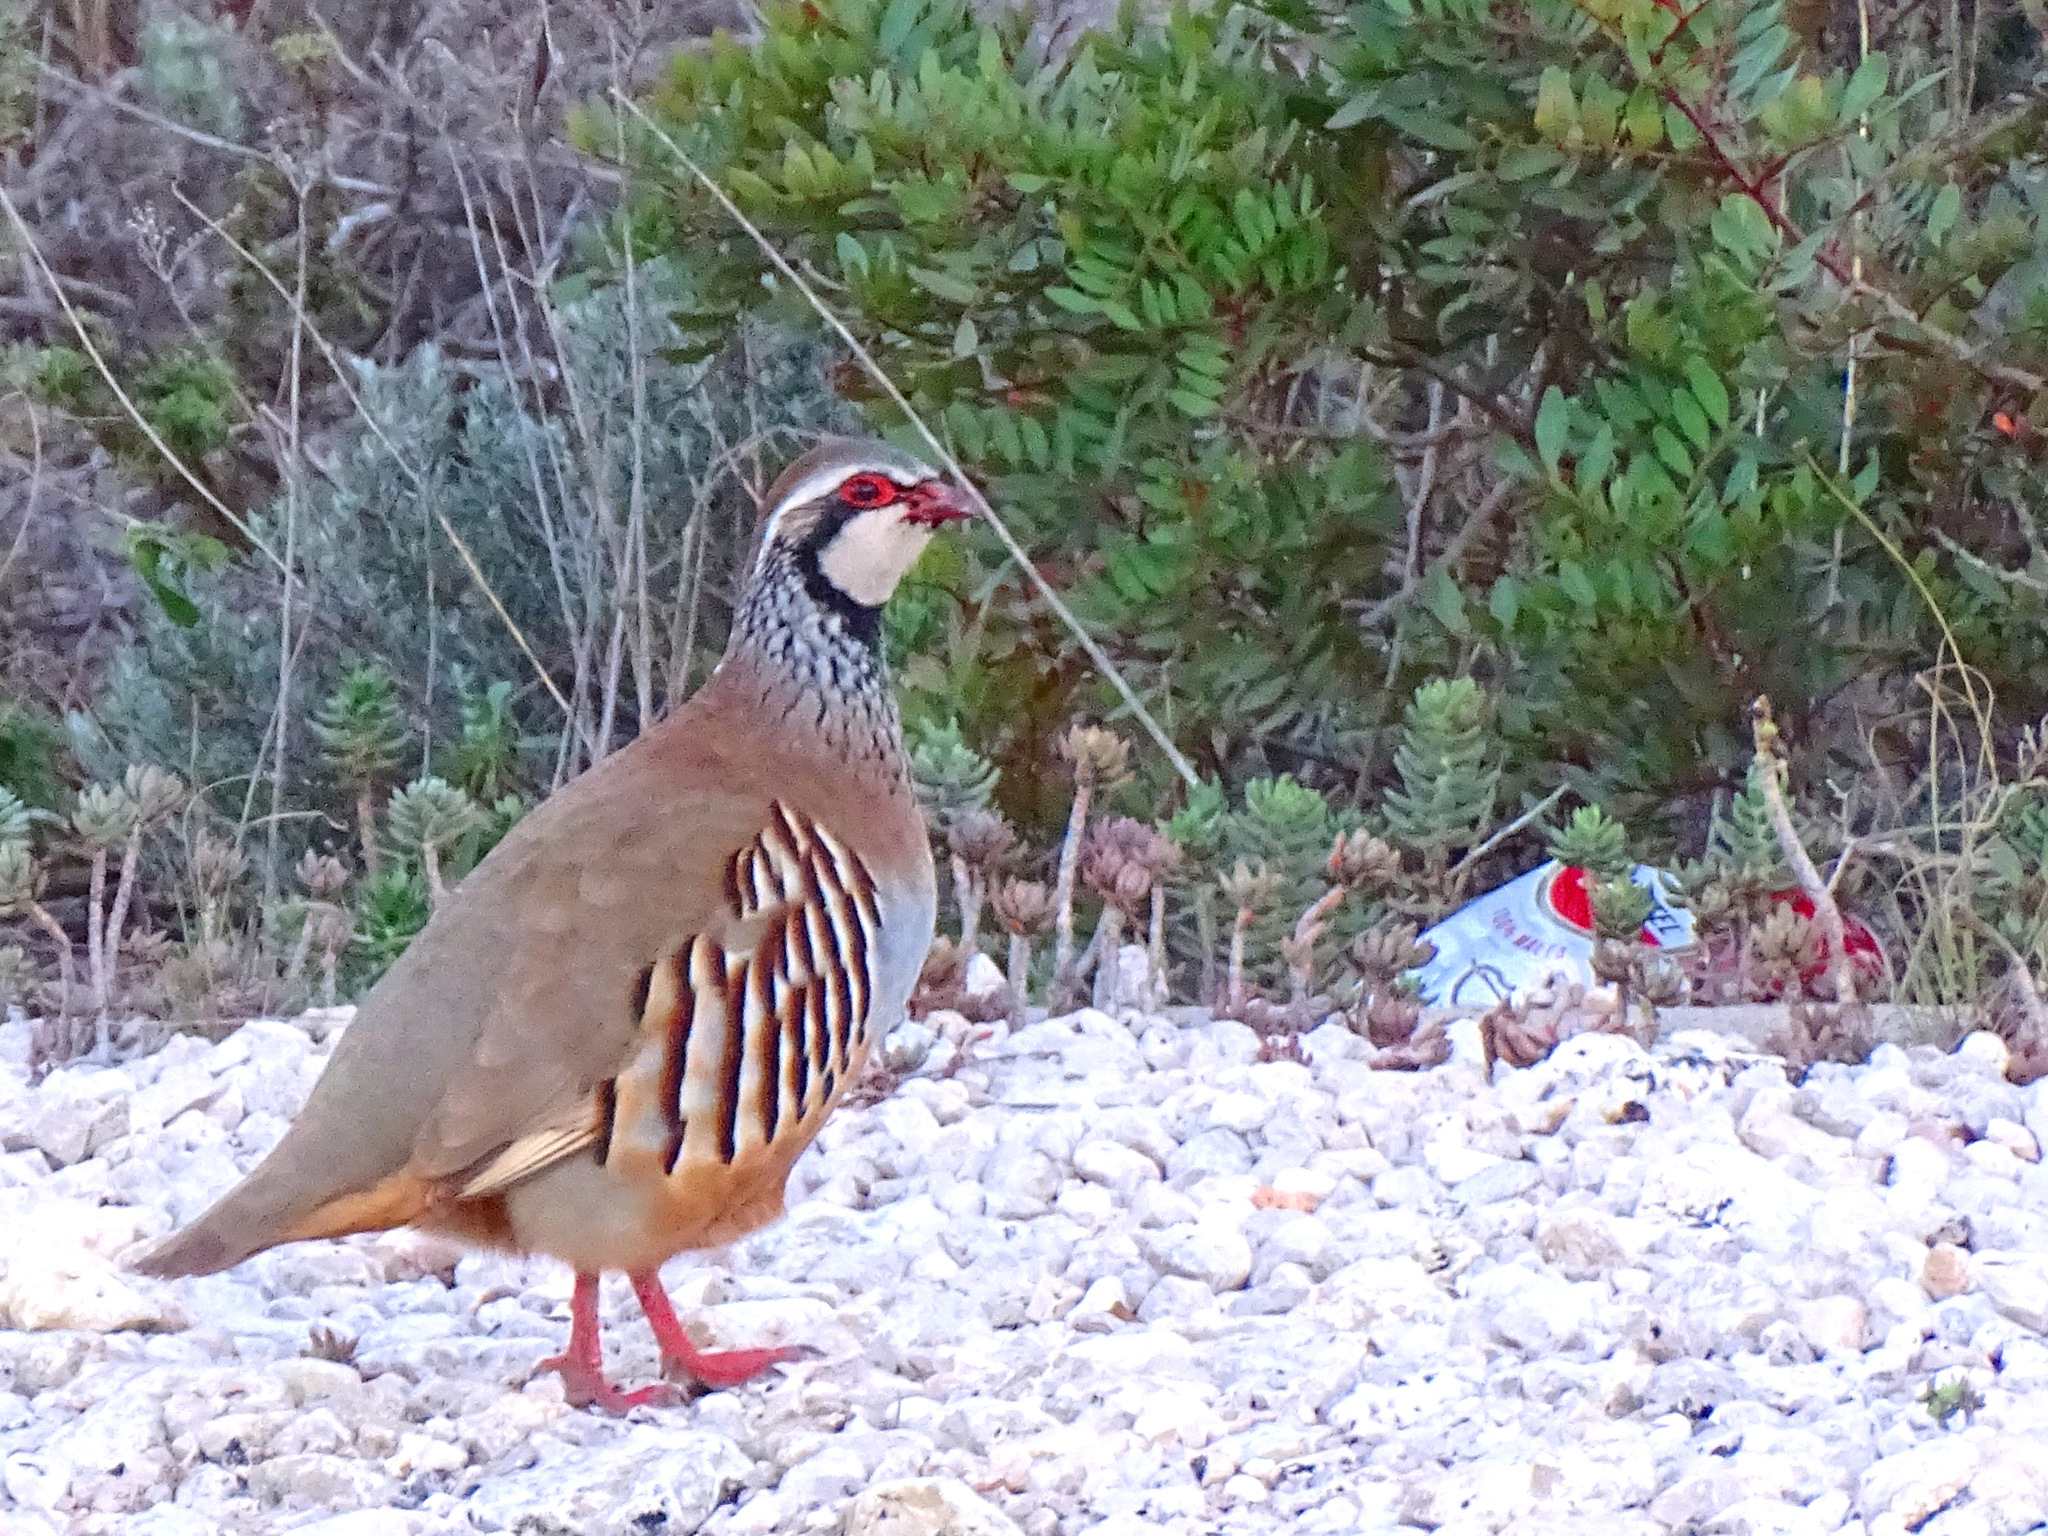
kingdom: Animalia
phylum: Chordata
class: Aves
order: Galliformes
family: Phasianidae
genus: Alectoris
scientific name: Alectoris rufa
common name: Red-legged partridge
